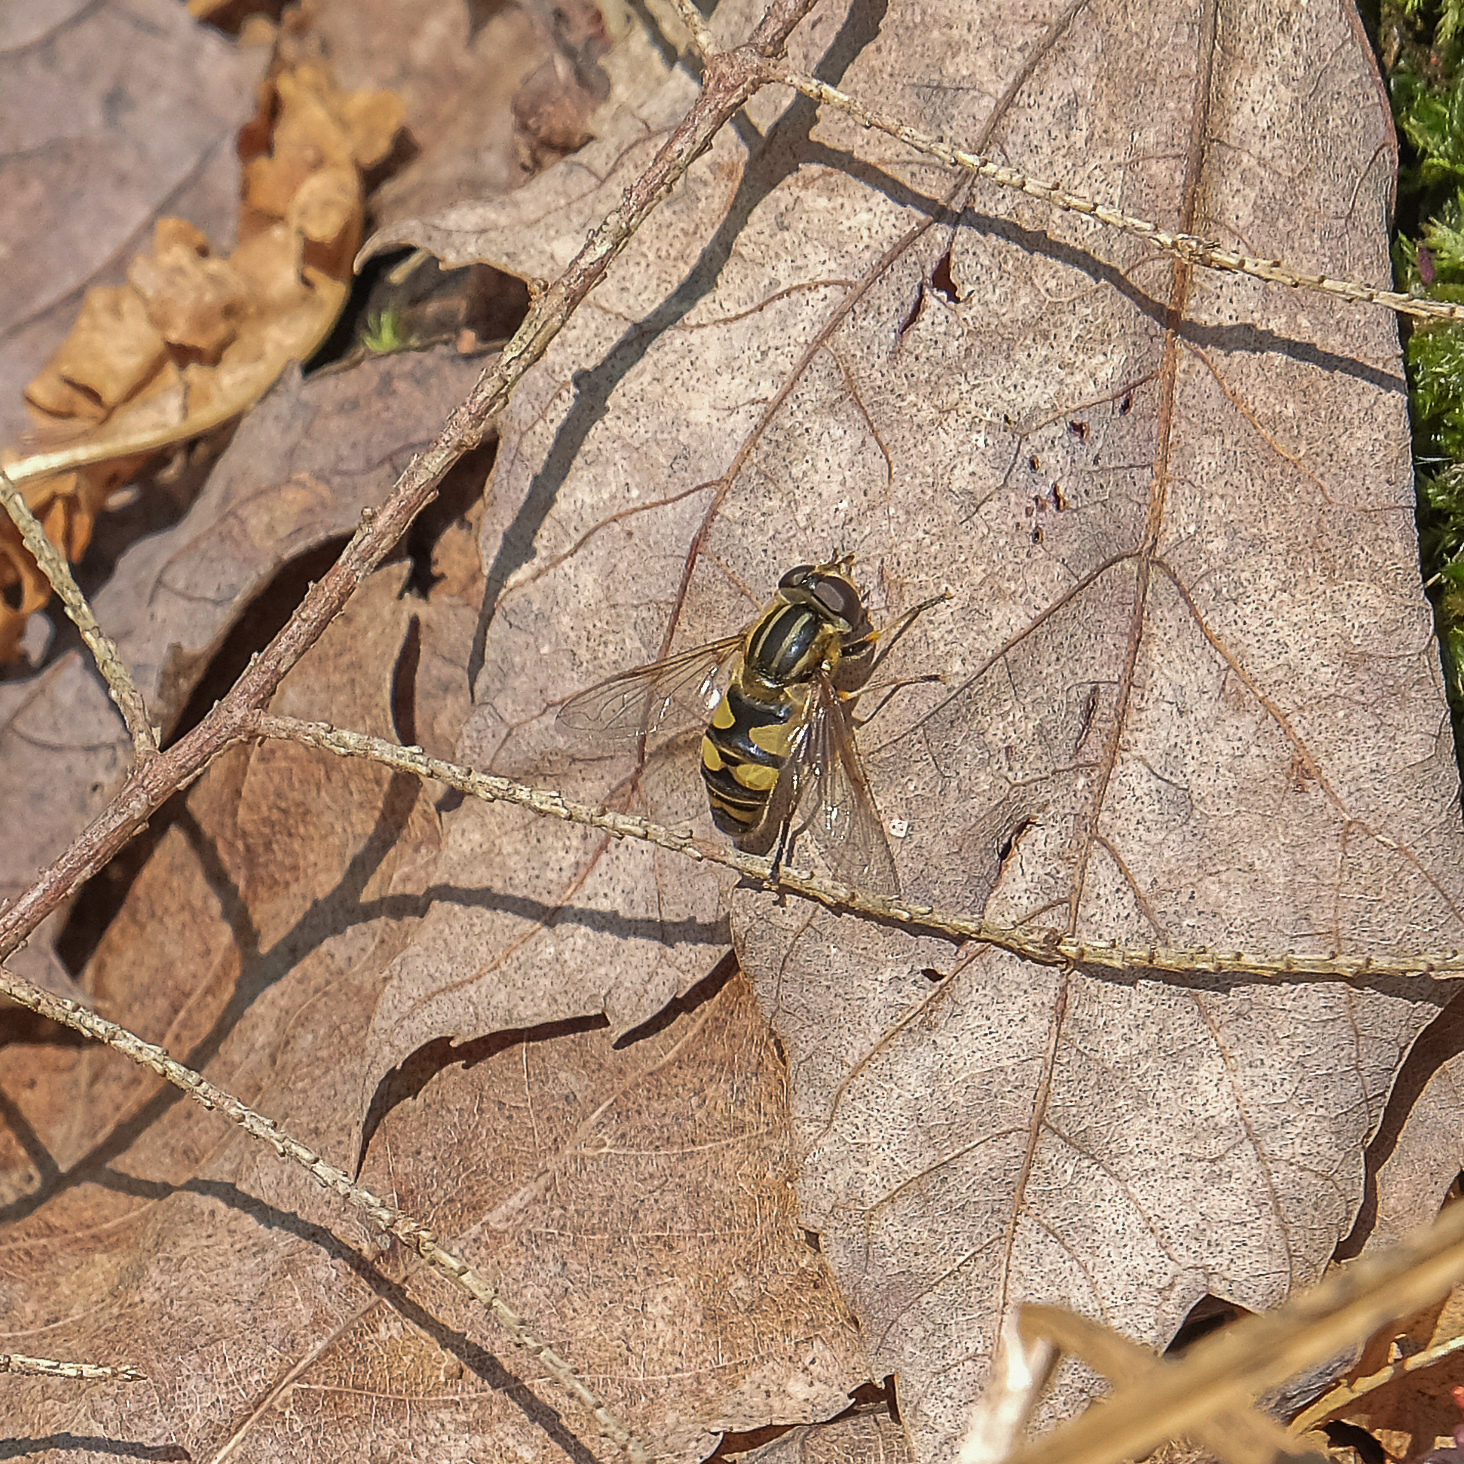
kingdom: Animalia
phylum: Arthropoda
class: Insecta
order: Diptera
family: Syrphidae
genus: Helophilus
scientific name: Helophilus fasciatus
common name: Narrow-headed marsh fly
